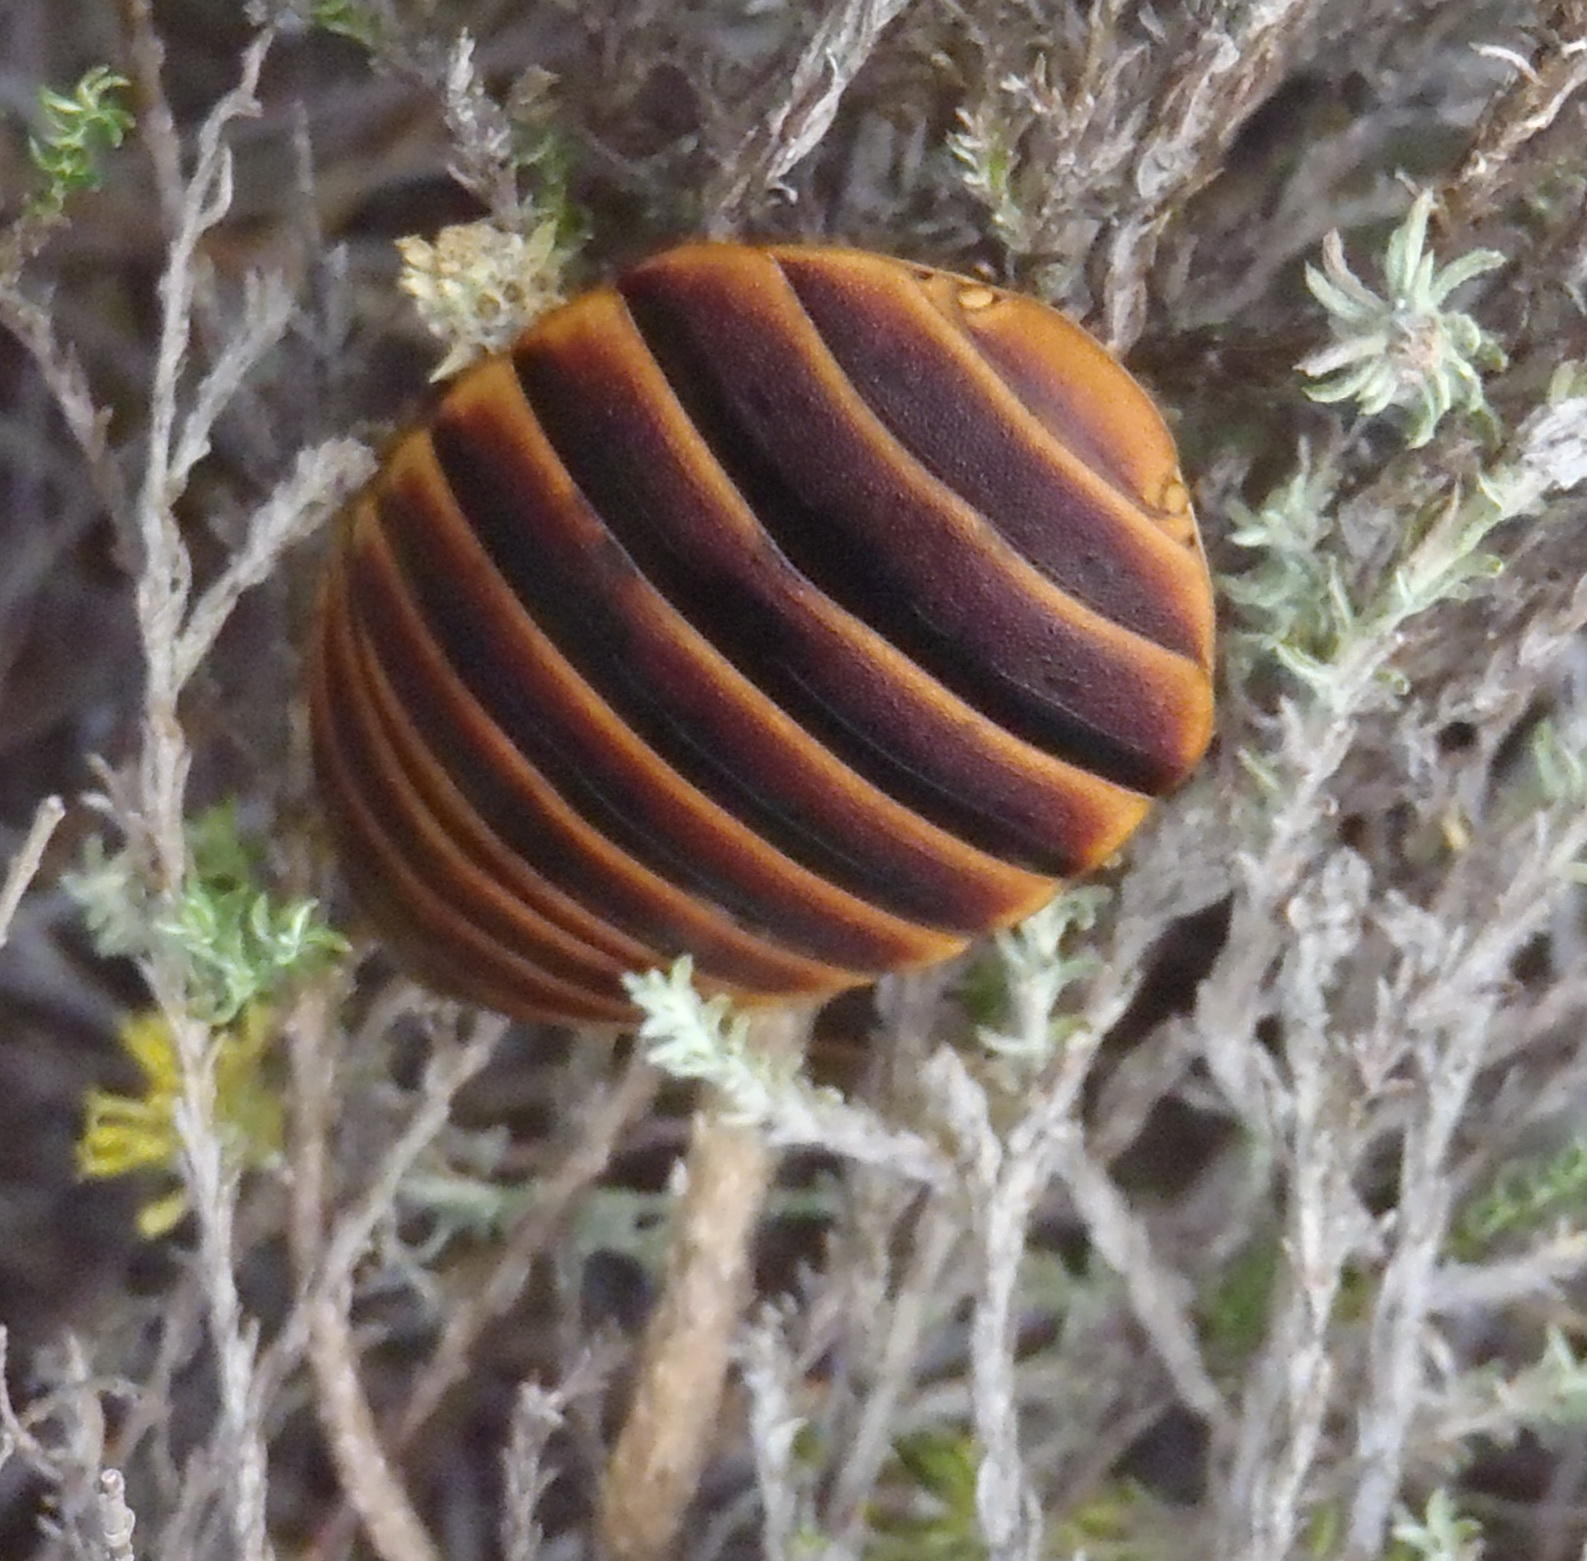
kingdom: Animalia
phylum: Arthropoda
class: Insecta
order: Blattodea
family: Blaberidae
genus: Aptera
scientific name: Aptera fusca
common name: Cape mountain cockroach
